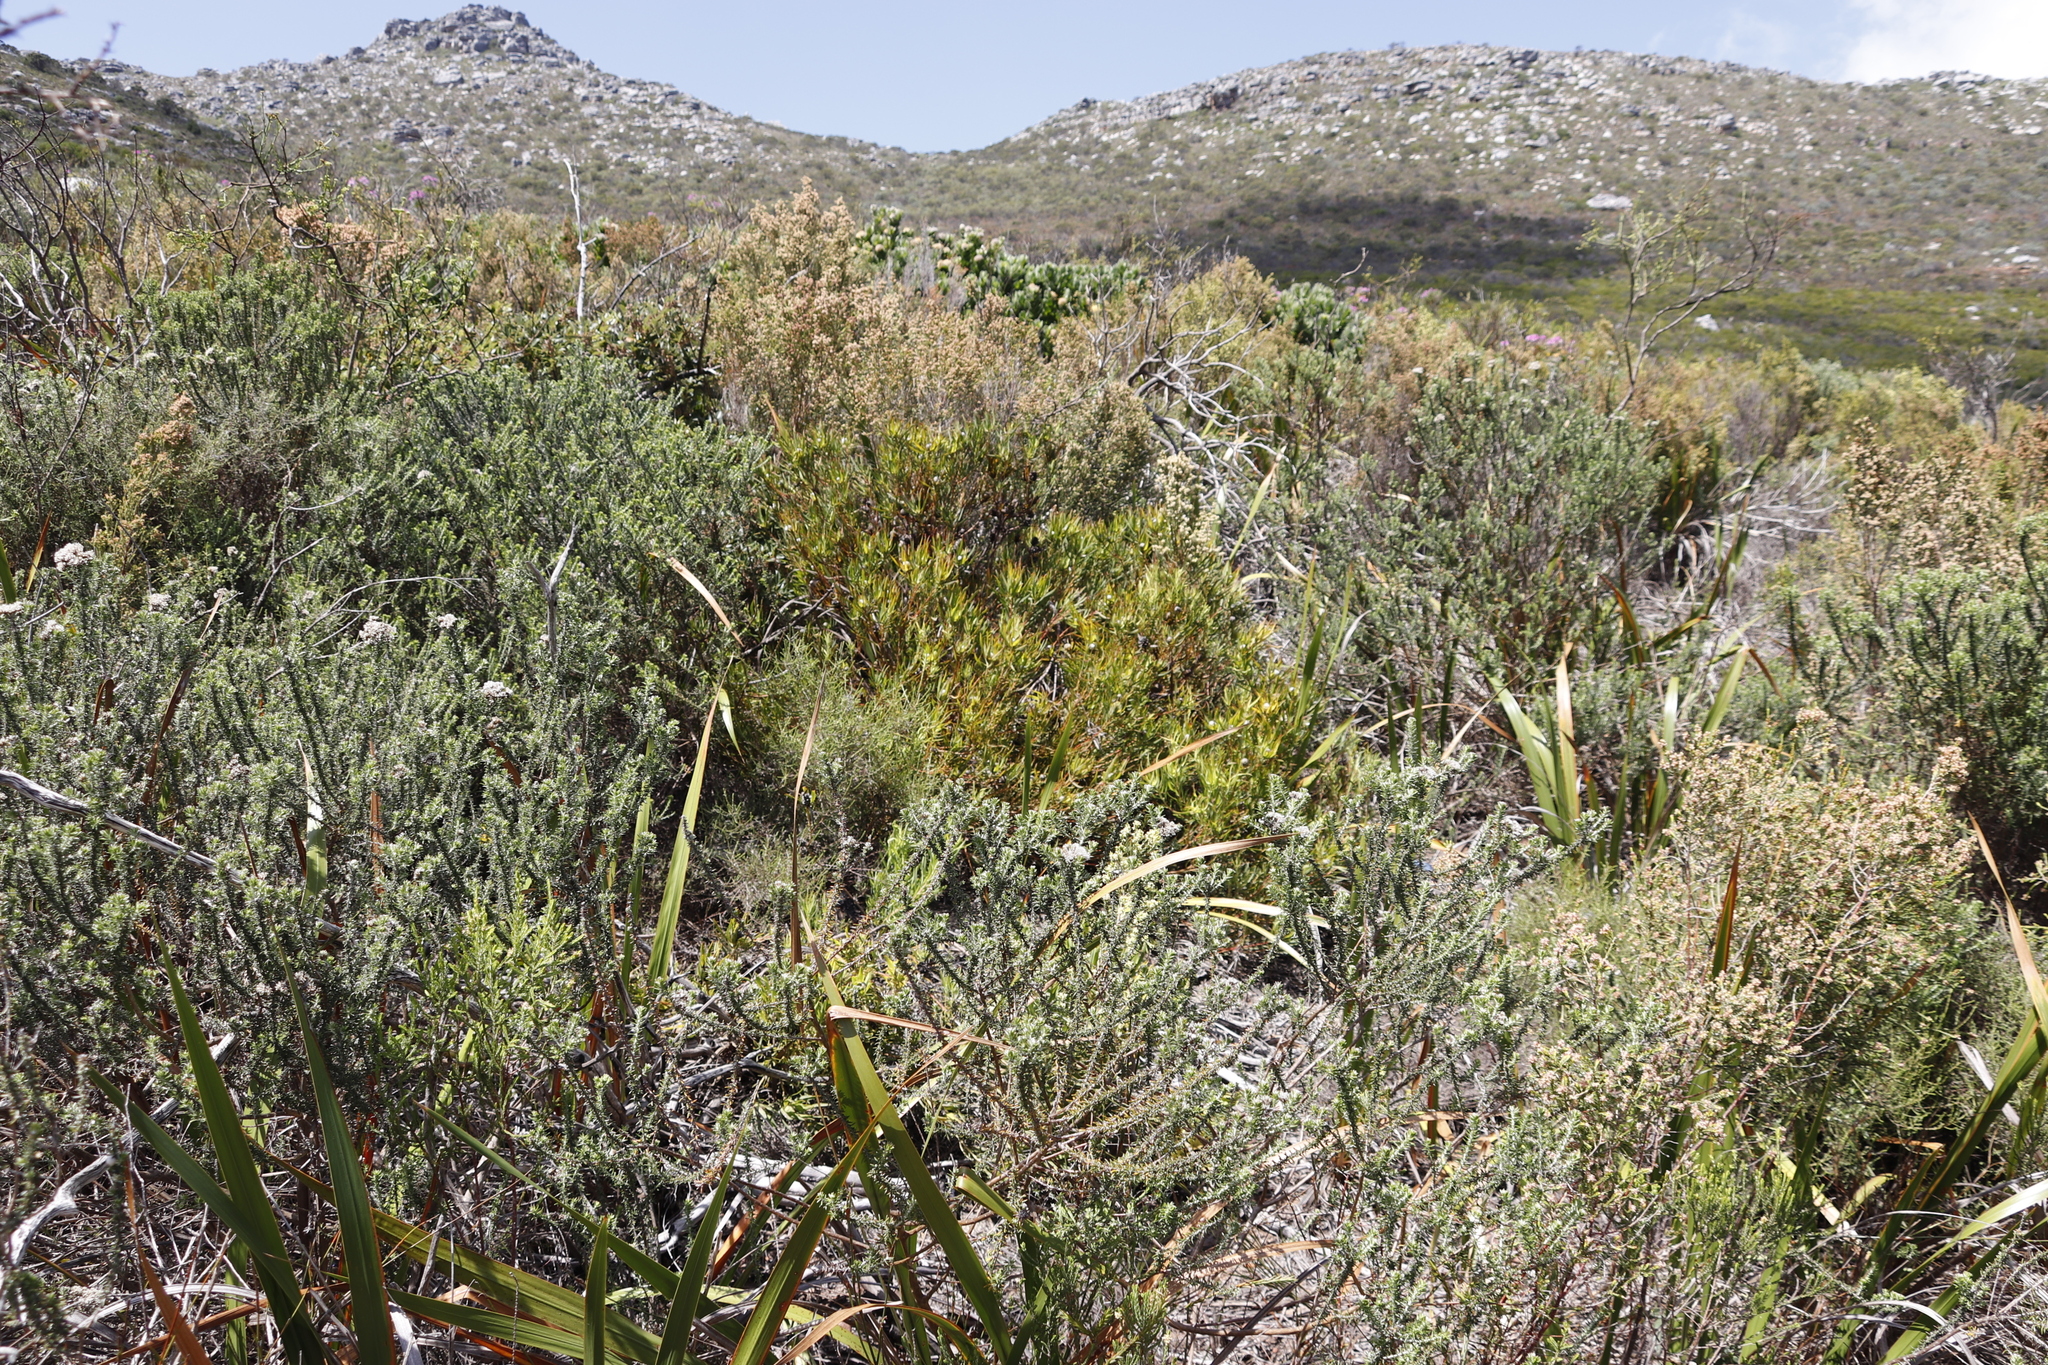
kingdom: Plantae
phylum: Tracheophyta
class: Magnoliopsida
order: Proteales
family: Proteaceae
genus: Leucadendron
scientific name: Leucadendron salignum
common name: Common sunshine conebush
